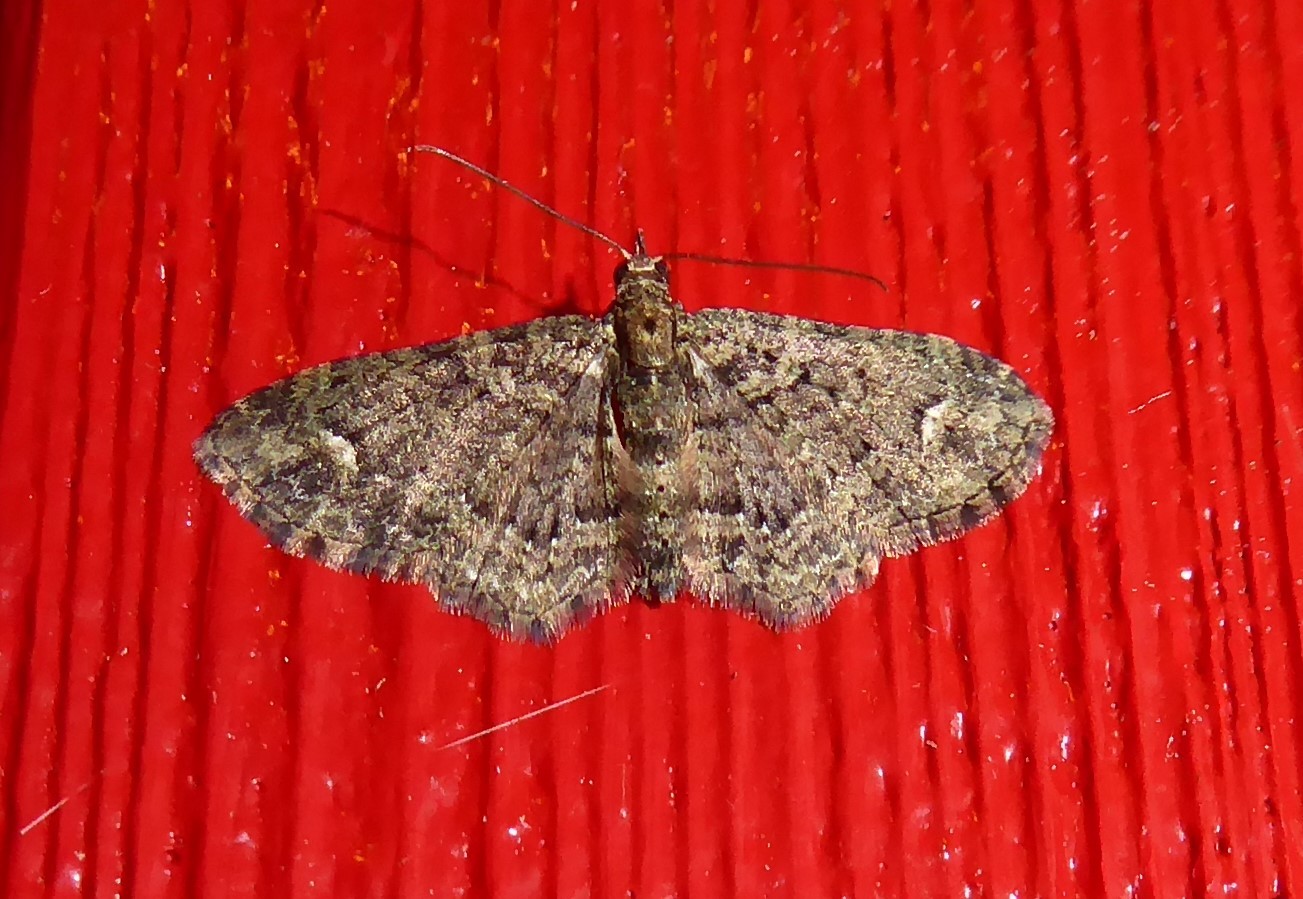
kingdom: Animalia
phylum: Arthropoda
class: Insecta
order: Lepidoptera
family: Geometridae
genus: Pasiphilodes
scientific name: Pasiphilodes testulata
